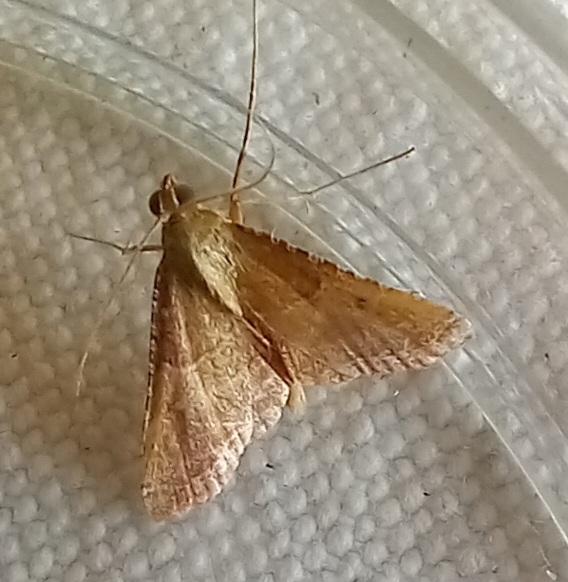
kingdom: Animalia
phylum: Arthropoda
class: Insecta
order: Lepidoptera
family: Pyralidae
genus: Endotricha
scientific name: Endotricha flammealis
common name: Rosy tabby
